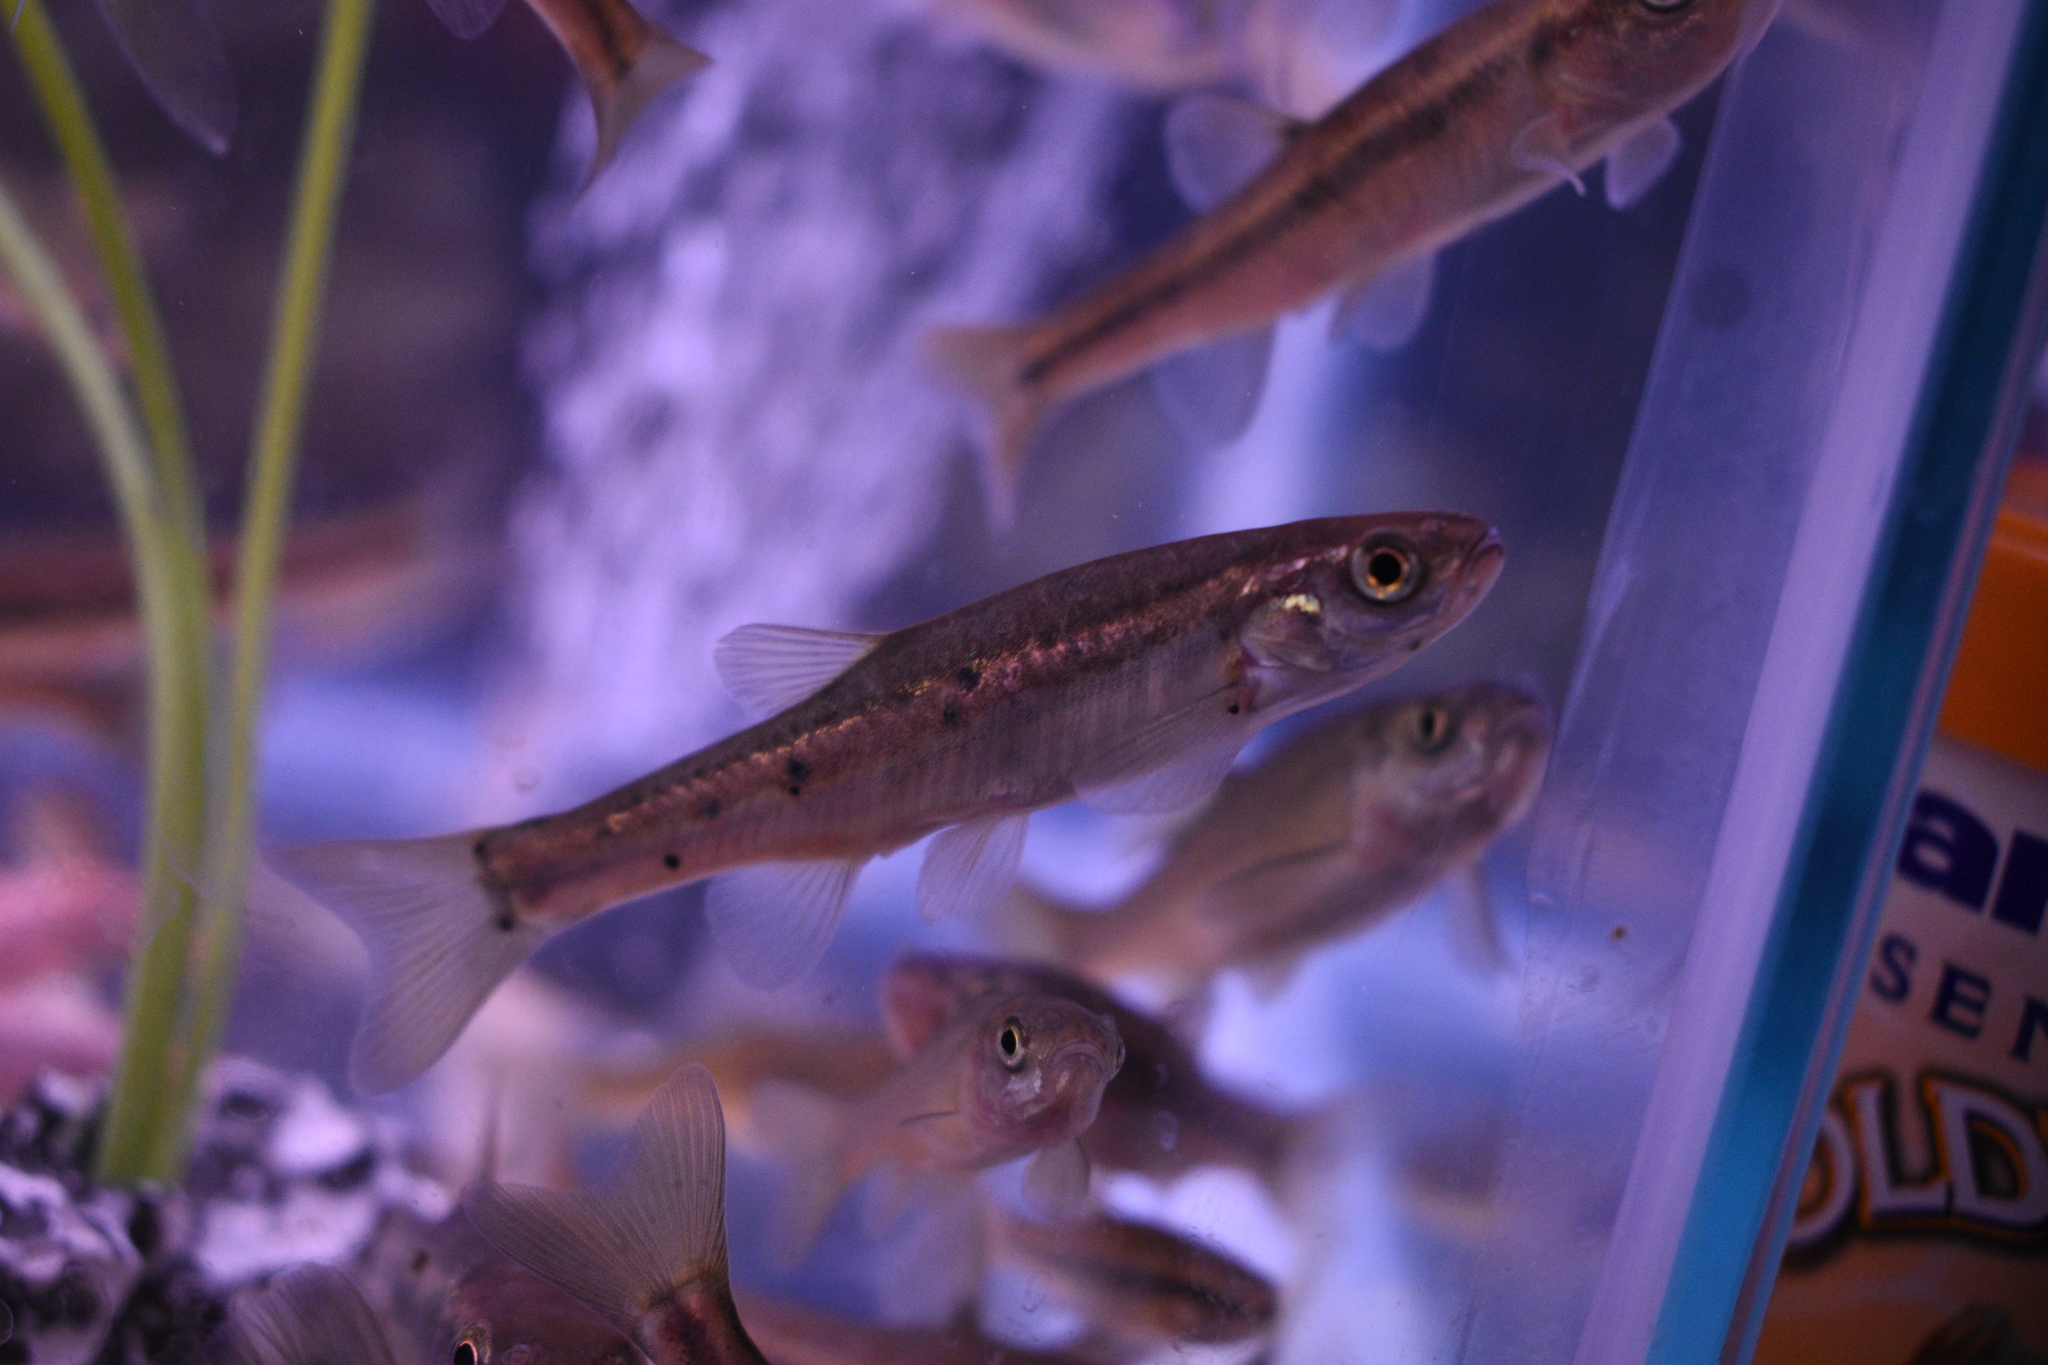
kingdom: Animalia
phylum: Chordata
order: Cypriniformes
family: Cyprinidae
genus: Chrosomus
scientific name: Chrosomus eos
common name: Northern redbelly dace
